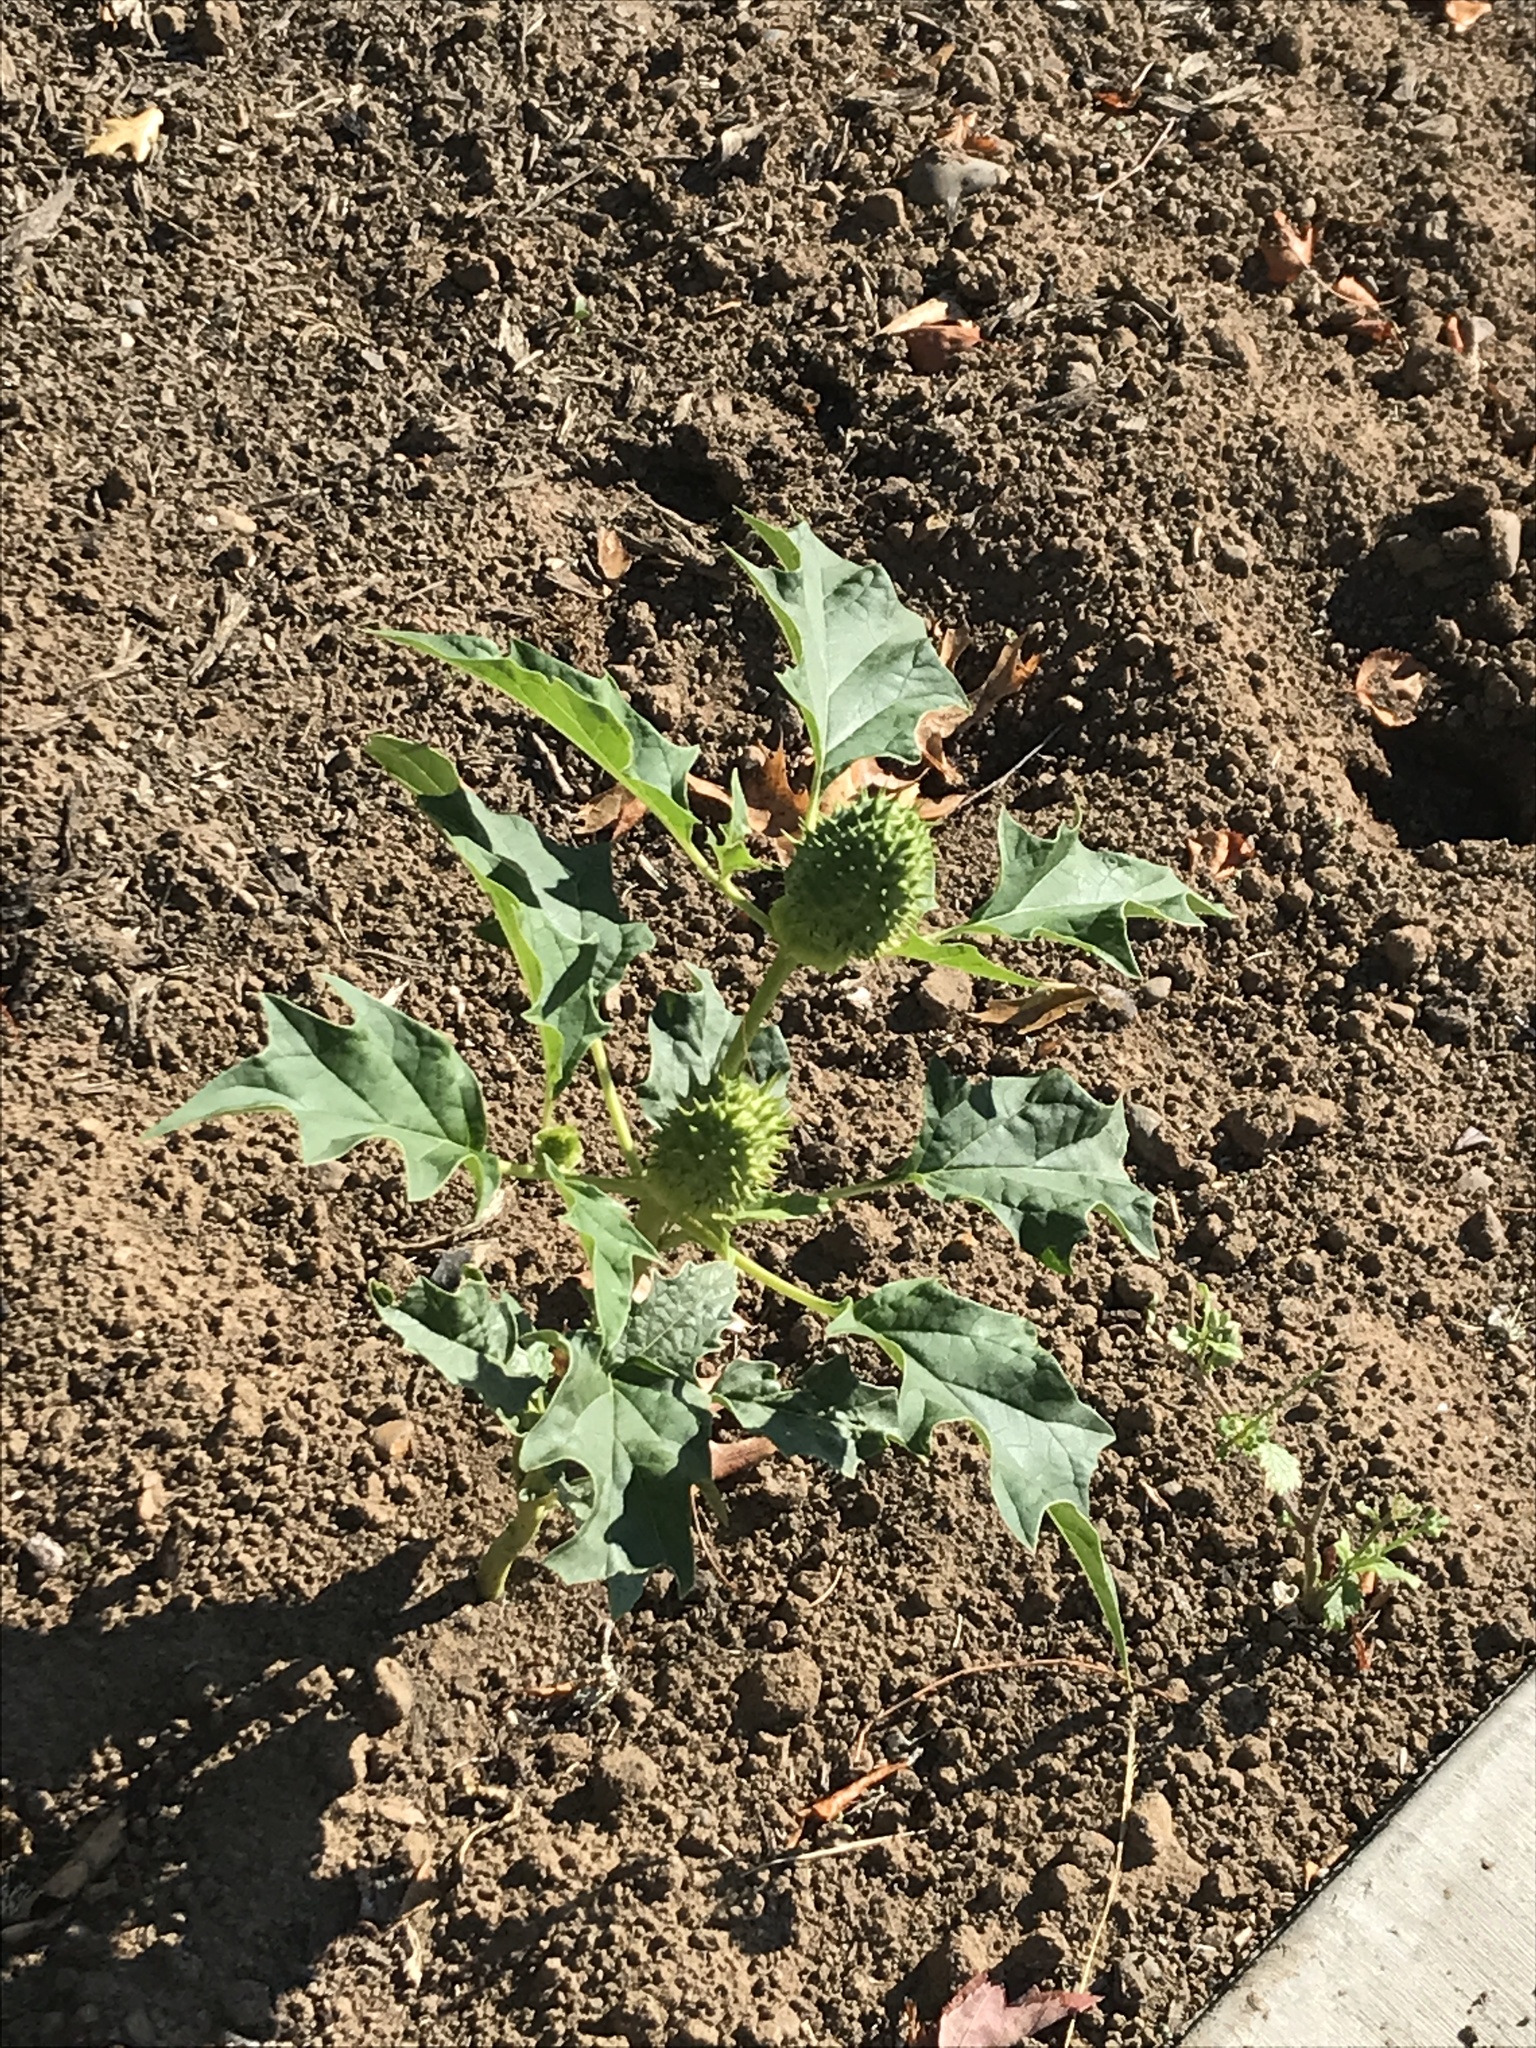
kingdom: Plantae
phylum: Tracheophyta
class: Magnoliopsida
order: Solanales
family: Solanaceae
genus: Datura
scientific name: Datura stramonium
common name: Thorn-apple
